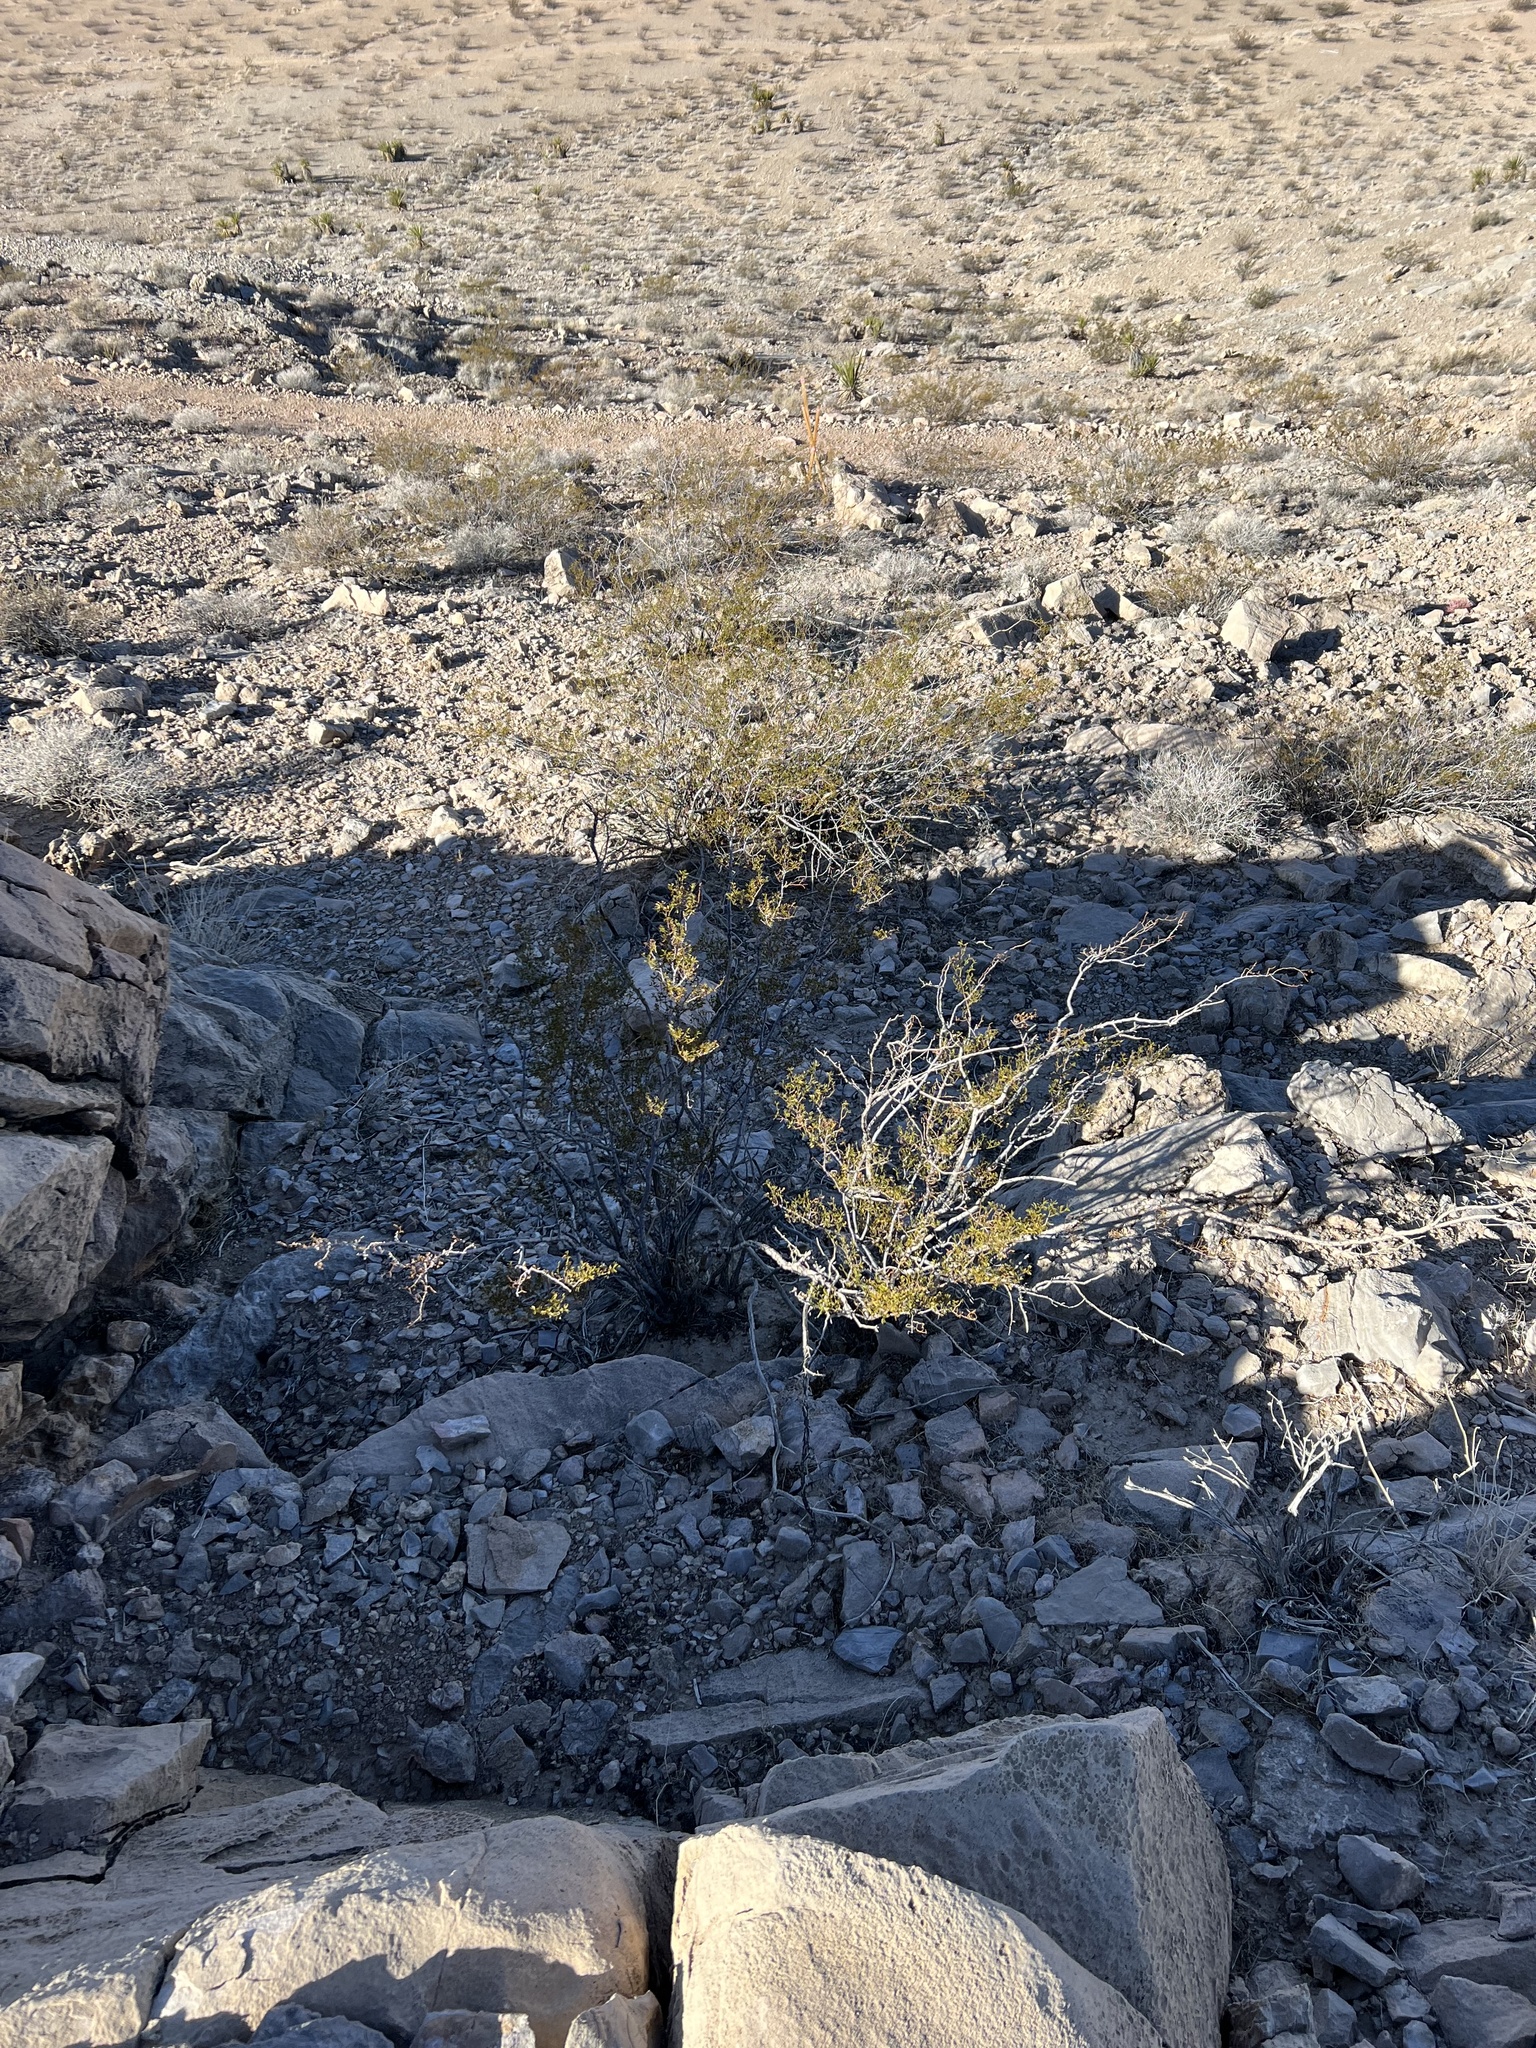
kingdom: Plantae
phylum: Tracheophyta
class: Magnoliopsida
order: Zygophyllales
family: Zygophyllaceae
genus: Larrea
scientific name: Larrea tridentata
